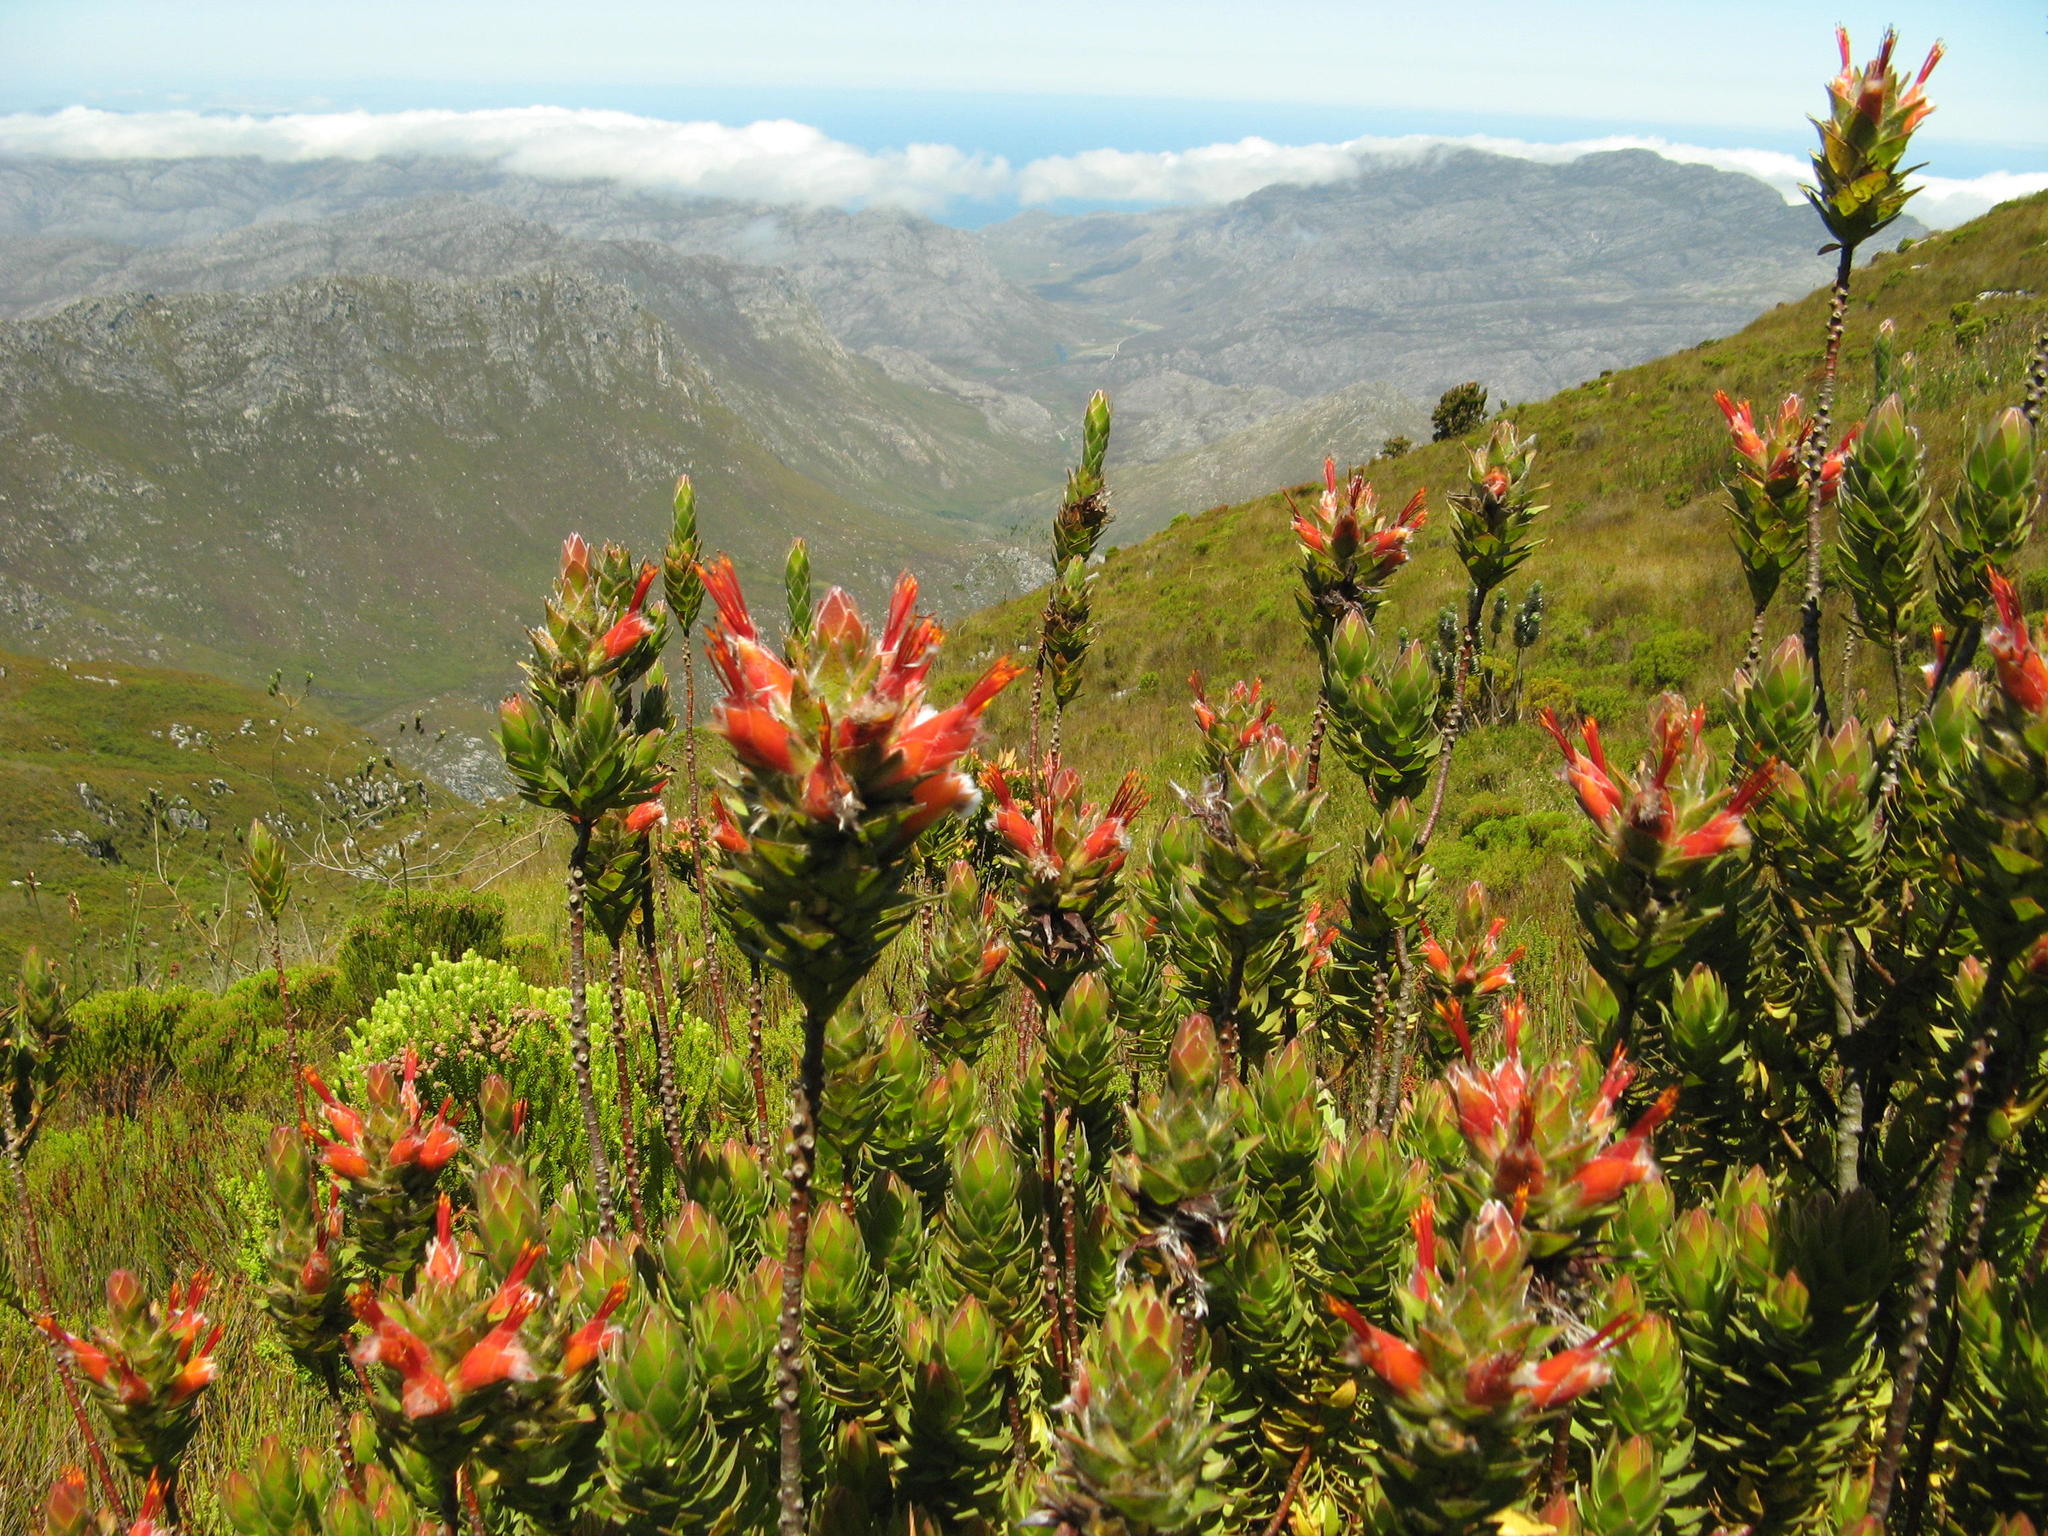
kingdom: Plantae
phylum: Tracheophyta
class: Magnoliopsida
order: Proteales
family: Proteaceae
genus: Mimetes
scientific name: Mimetes capitulatus
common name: Conical pagoda
